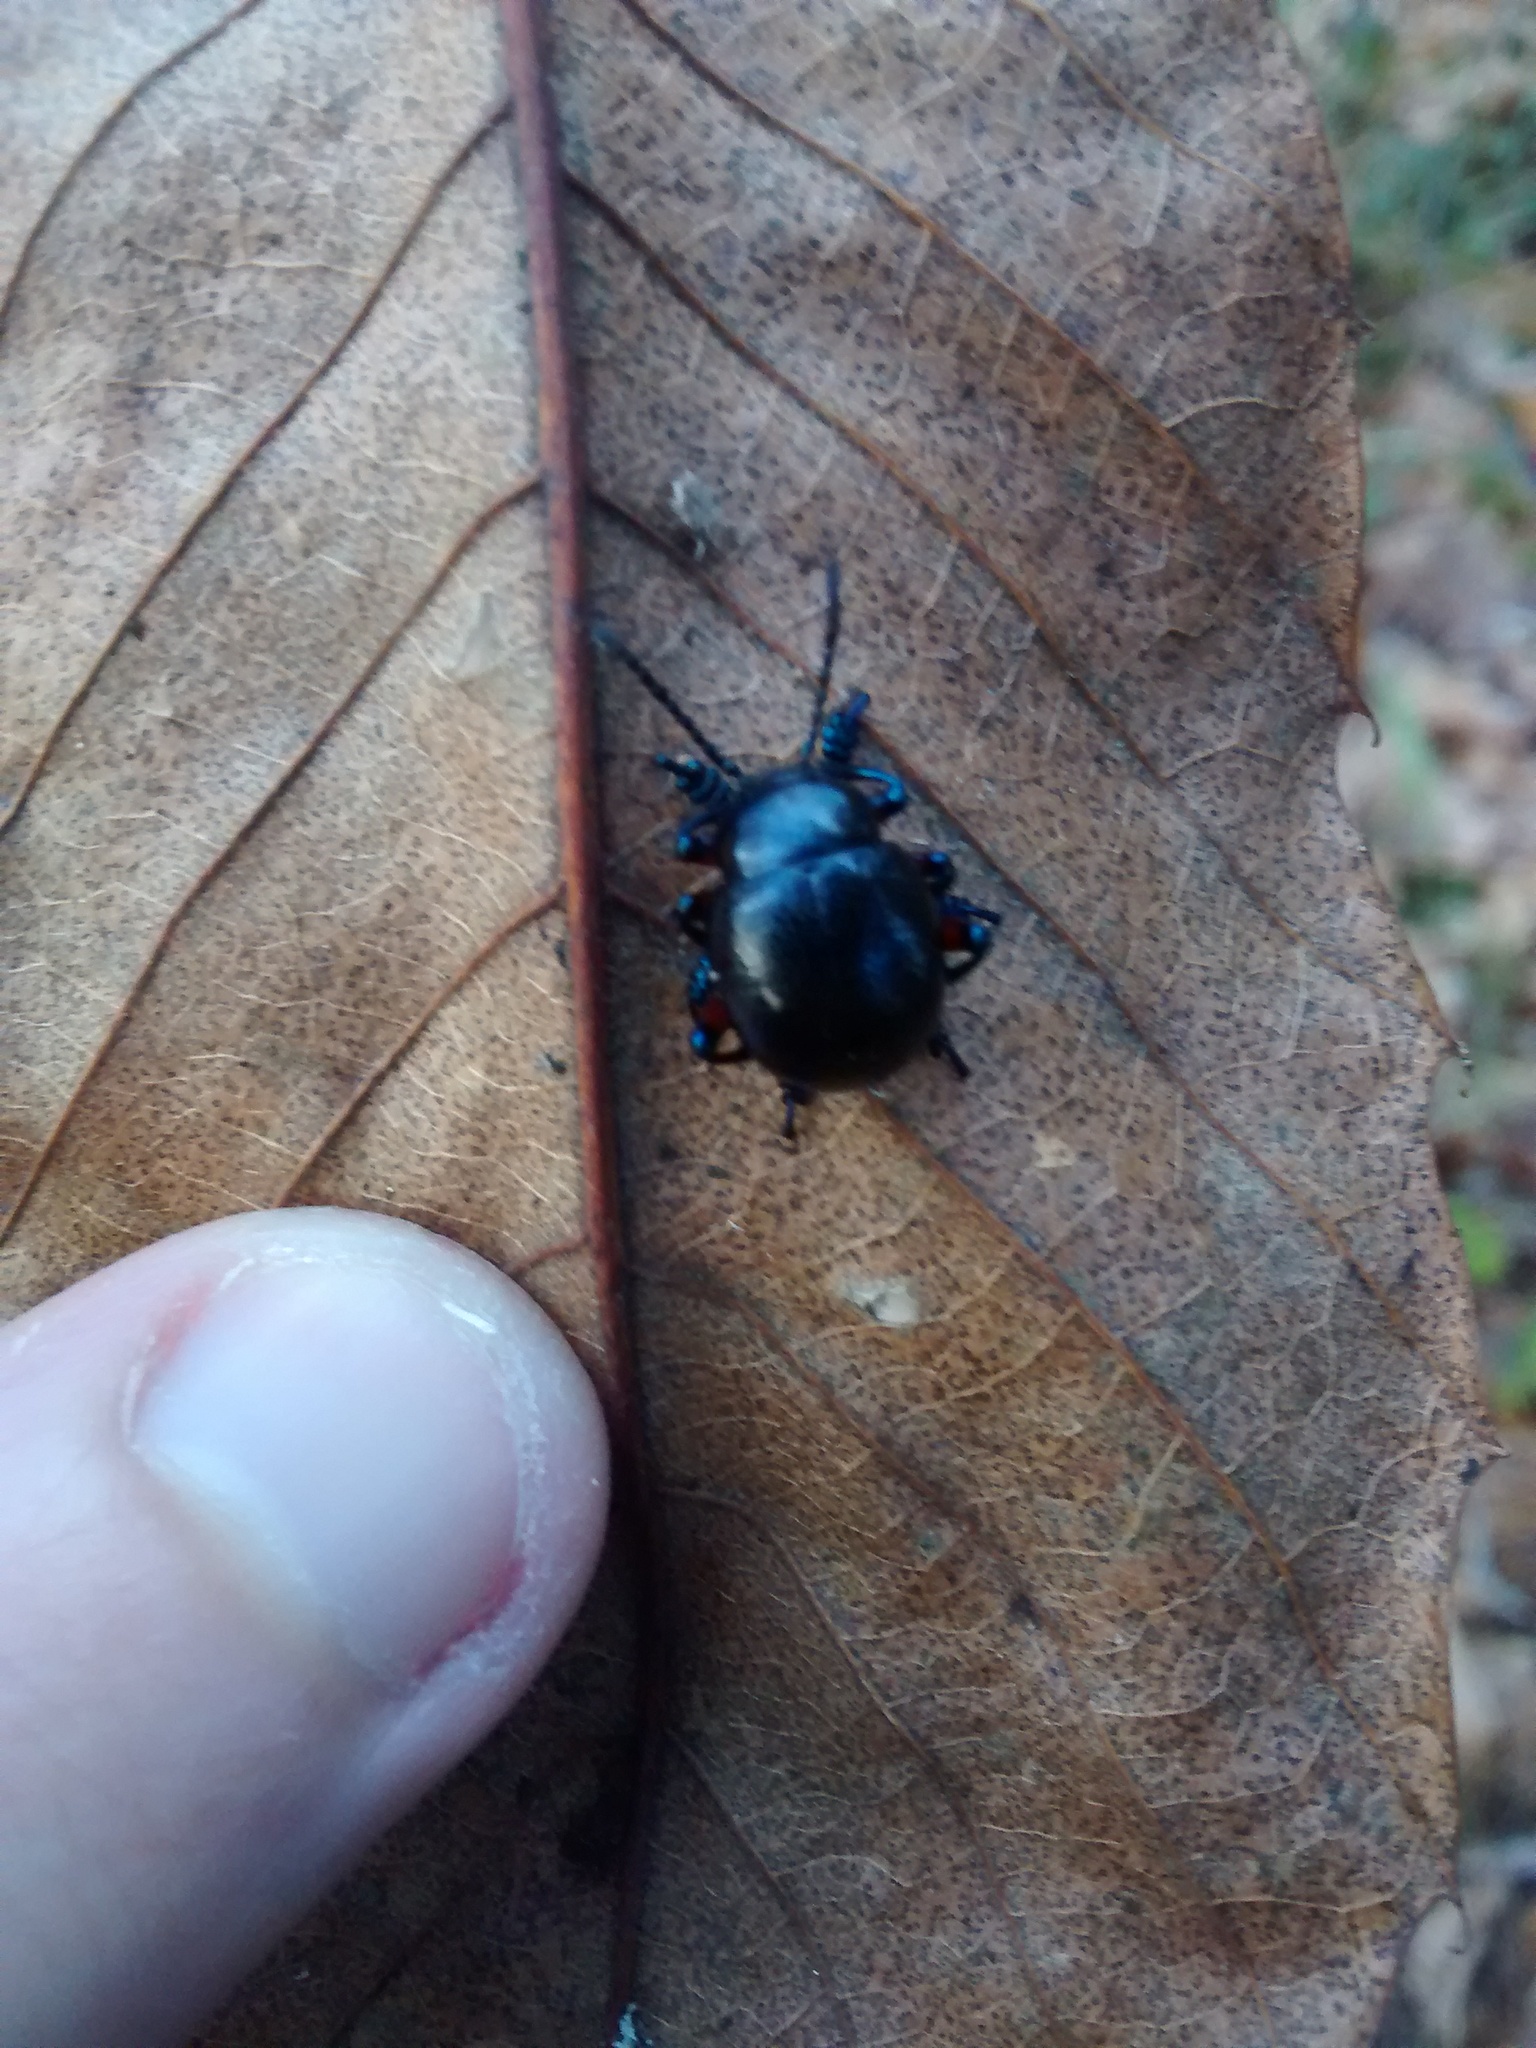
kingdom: Animalia
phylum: Arthropoda
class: Insecta
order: Coleoptera
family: Chrysomelidae
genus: Timarcha
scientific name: Timarcha gougeleti
